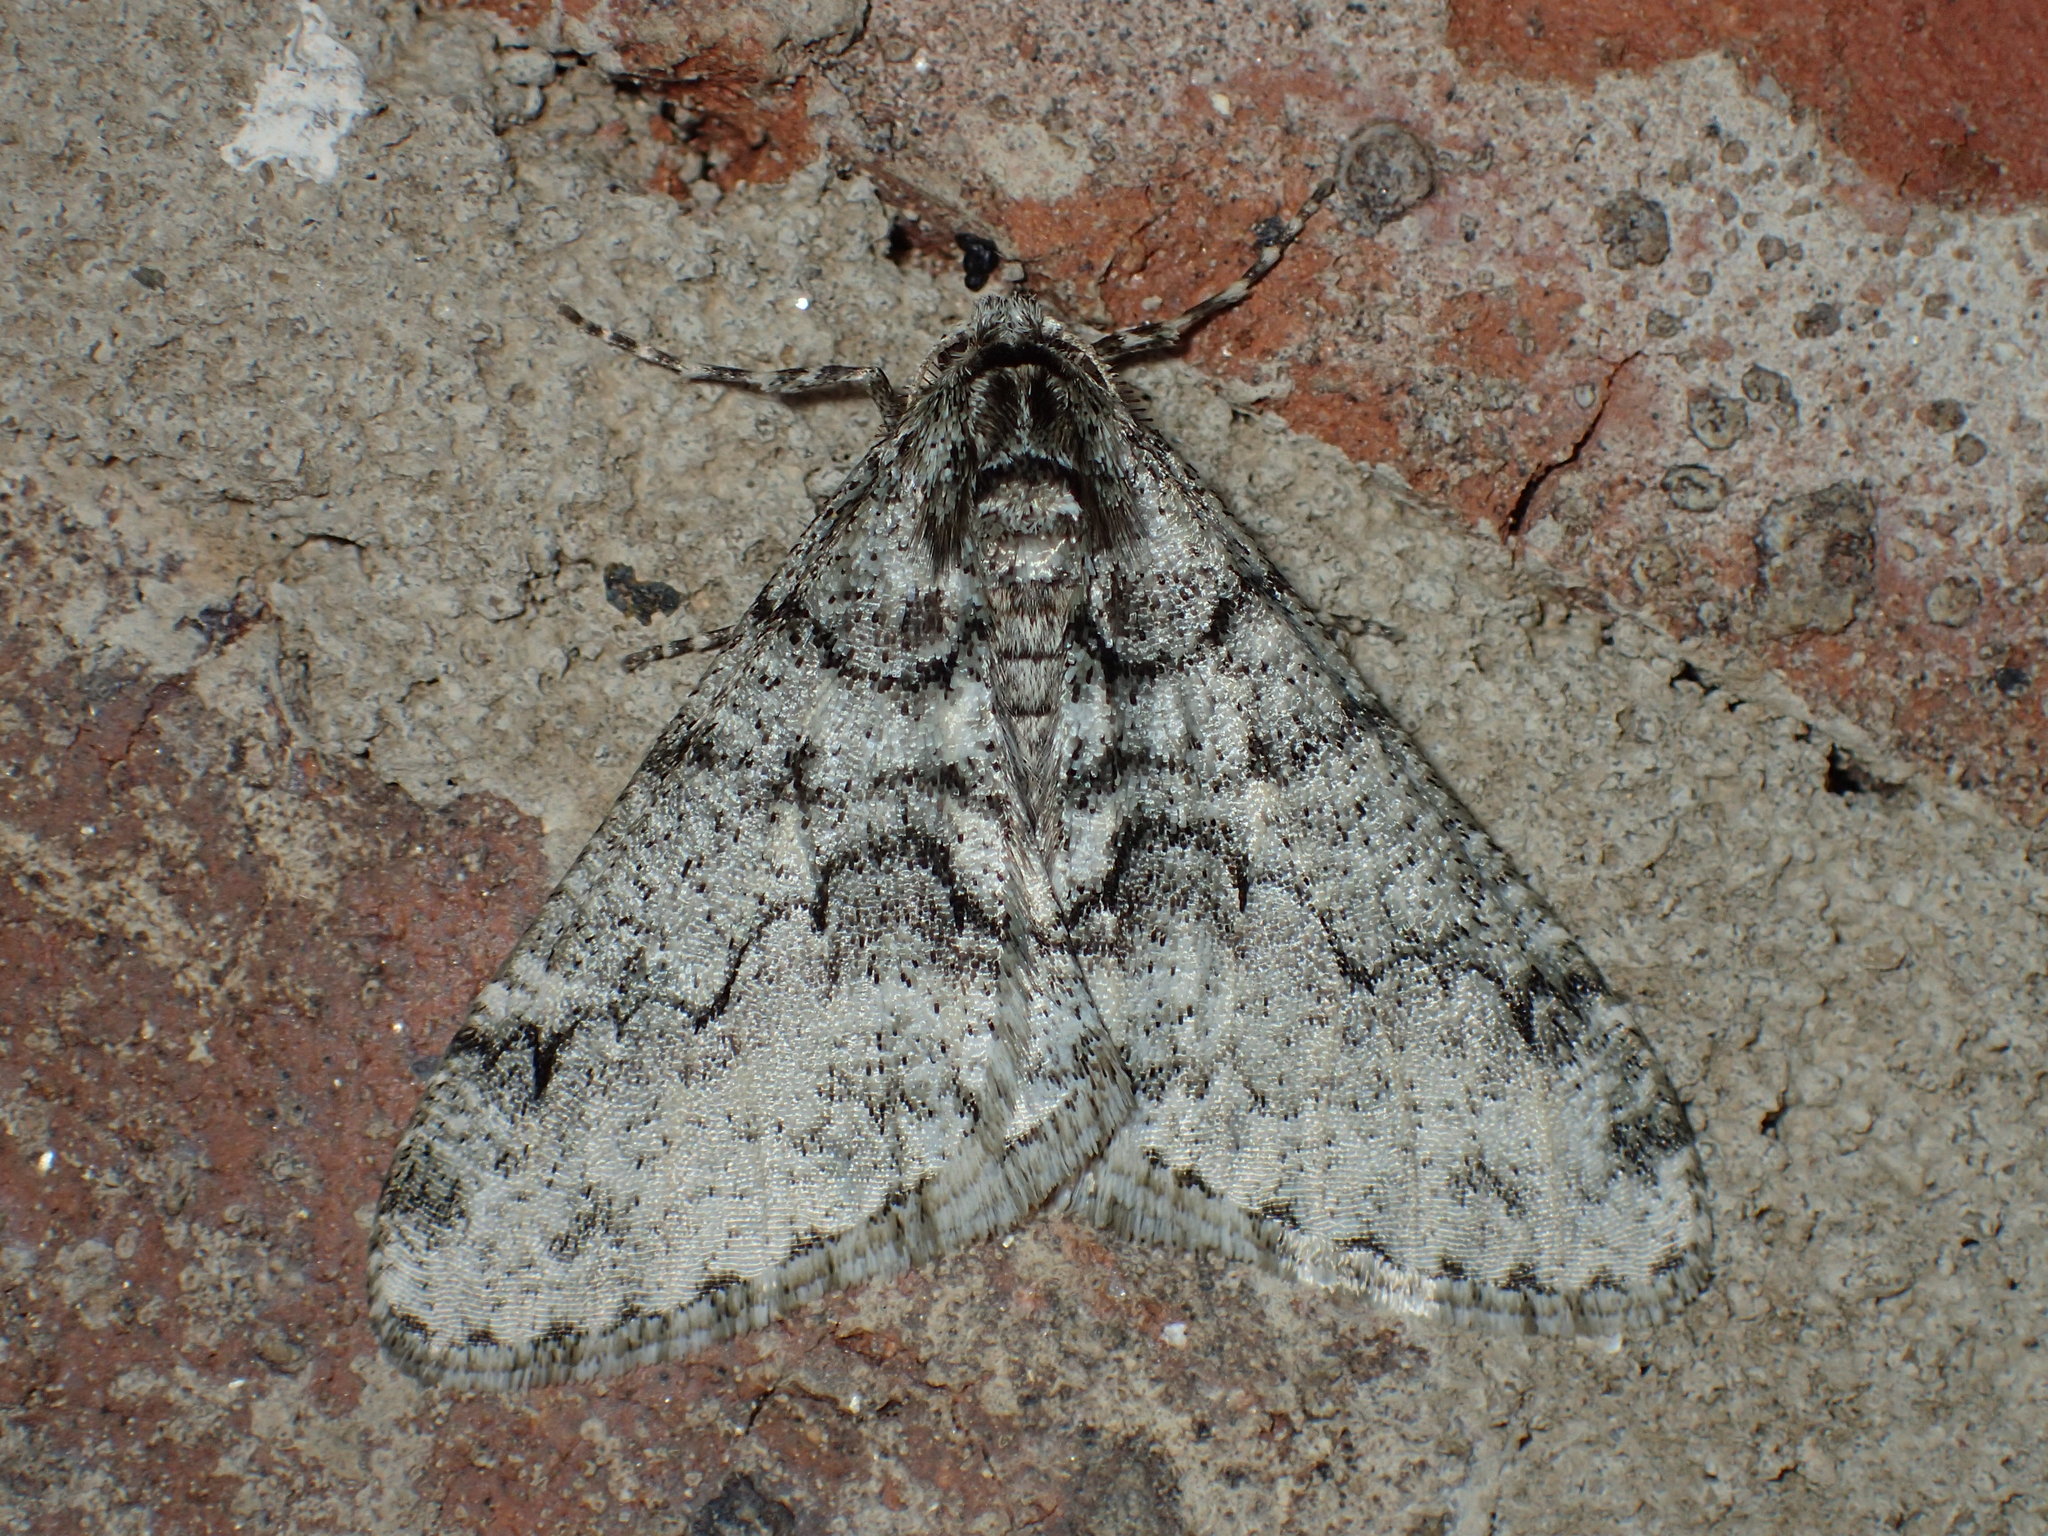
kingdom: Animalia
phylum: Arthropoda
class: Insecta
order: Lepidoptera
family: Geometridae
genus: Phigalia
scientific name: Phigalia denticulata
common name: Toothed phigalia
